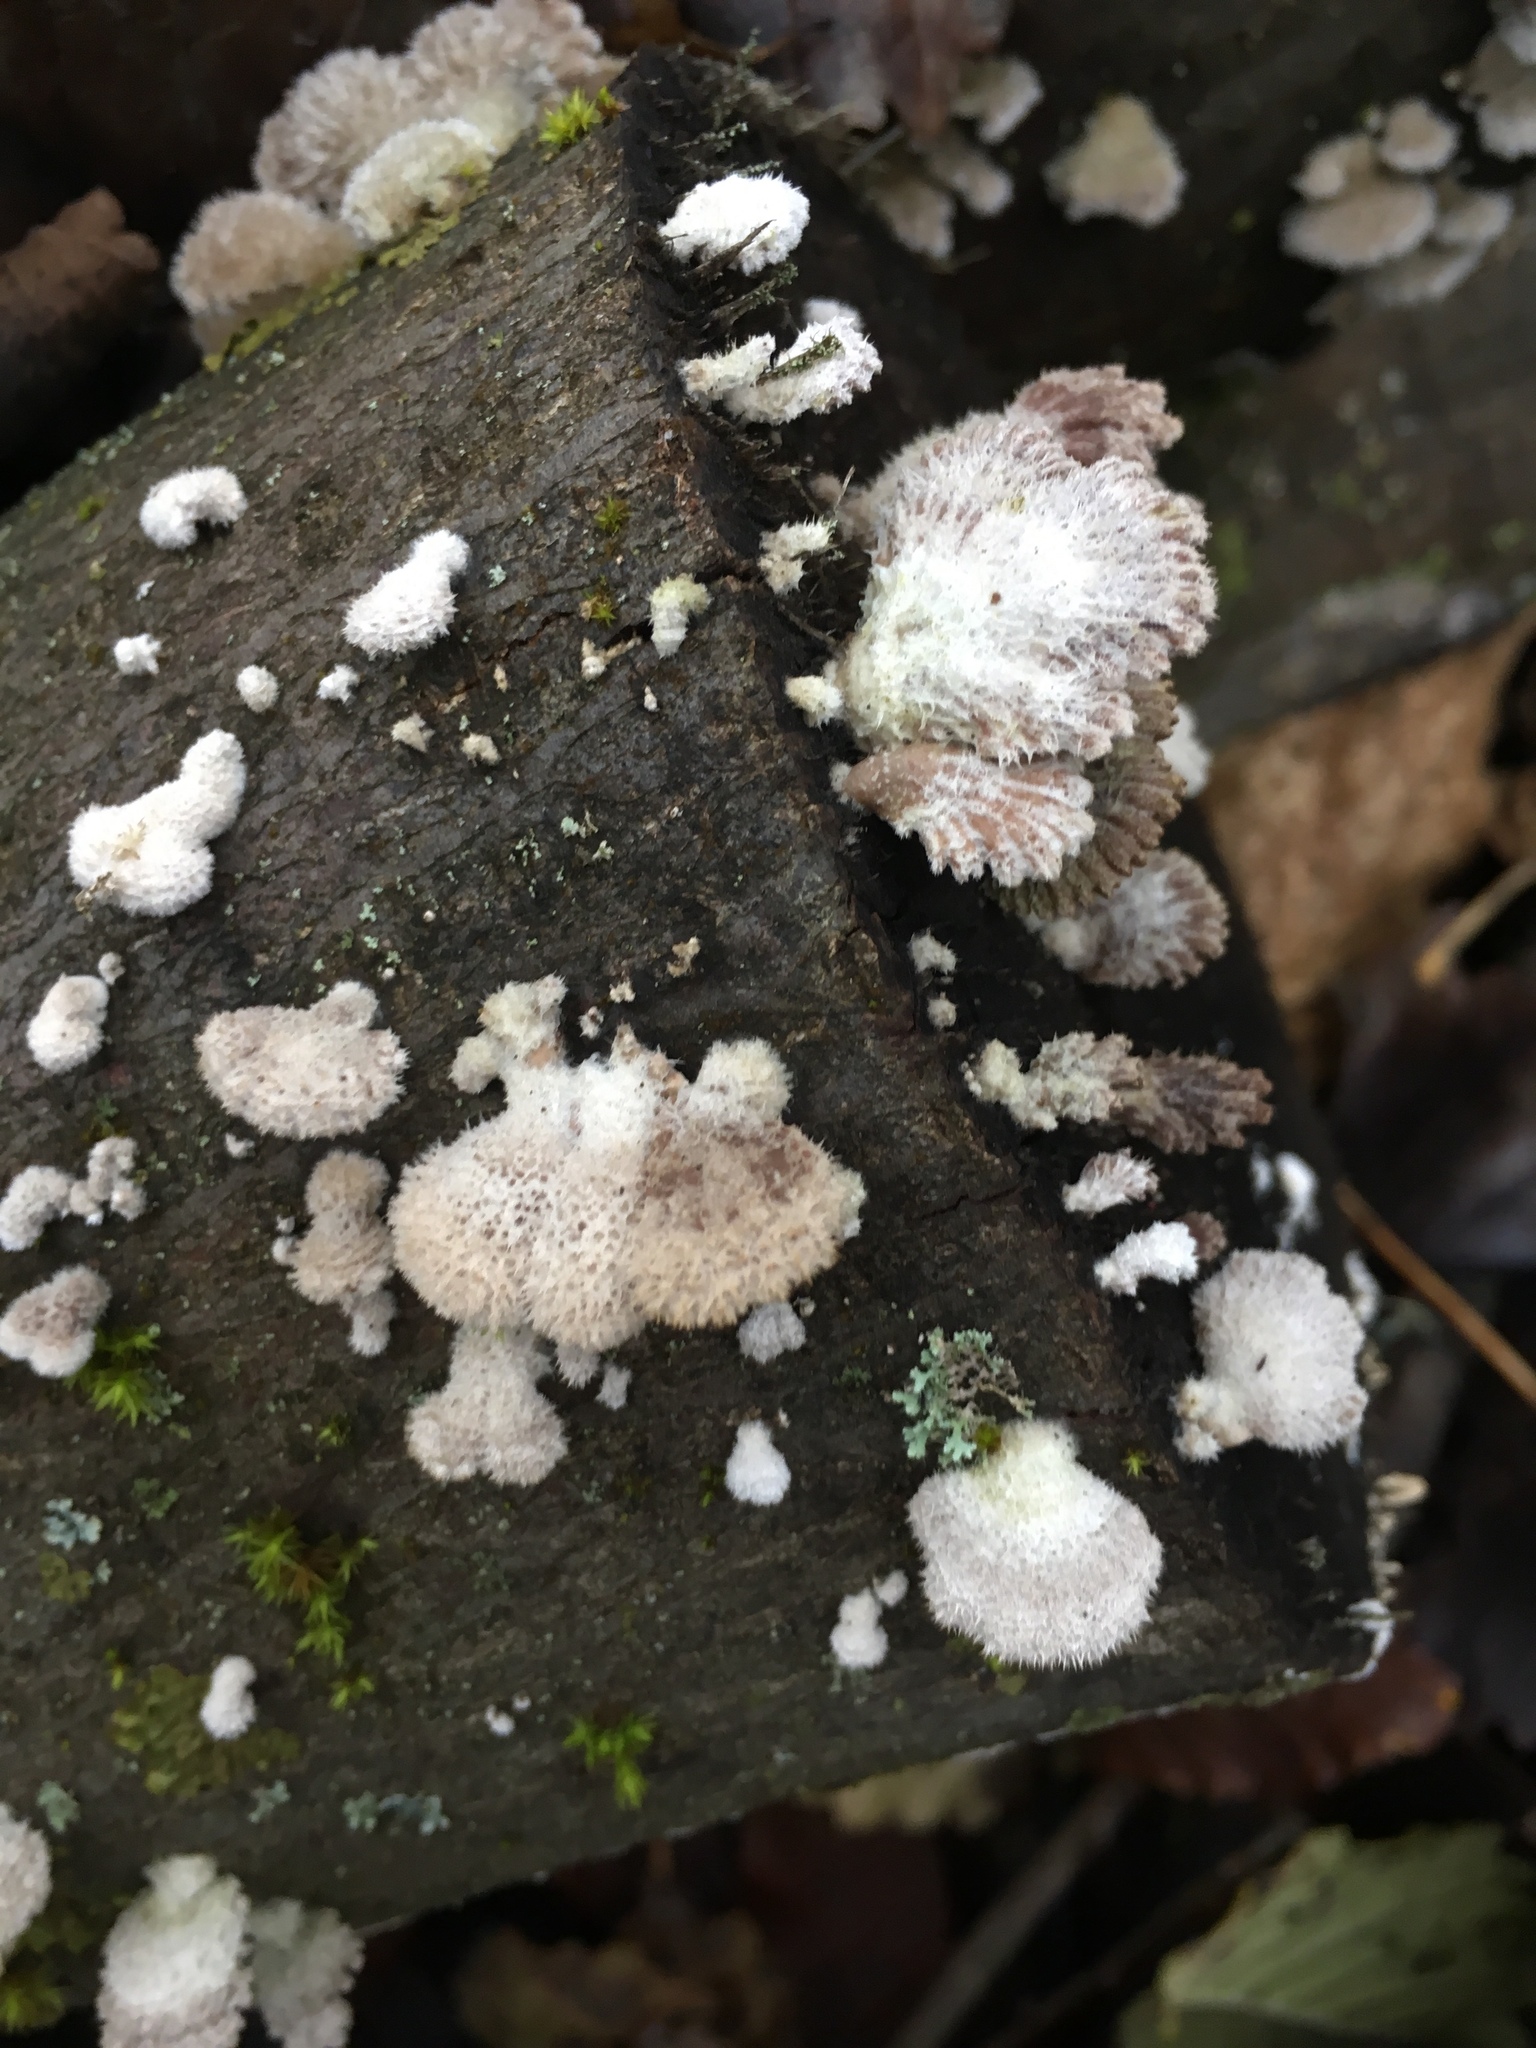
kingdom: Fungi
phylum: Basidiomycota
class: Agaricomycetes
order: Agaricales
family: Schizophyllaceae
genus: Schizophyllum
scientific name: Schizophyllum commune
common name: Common porecrust
